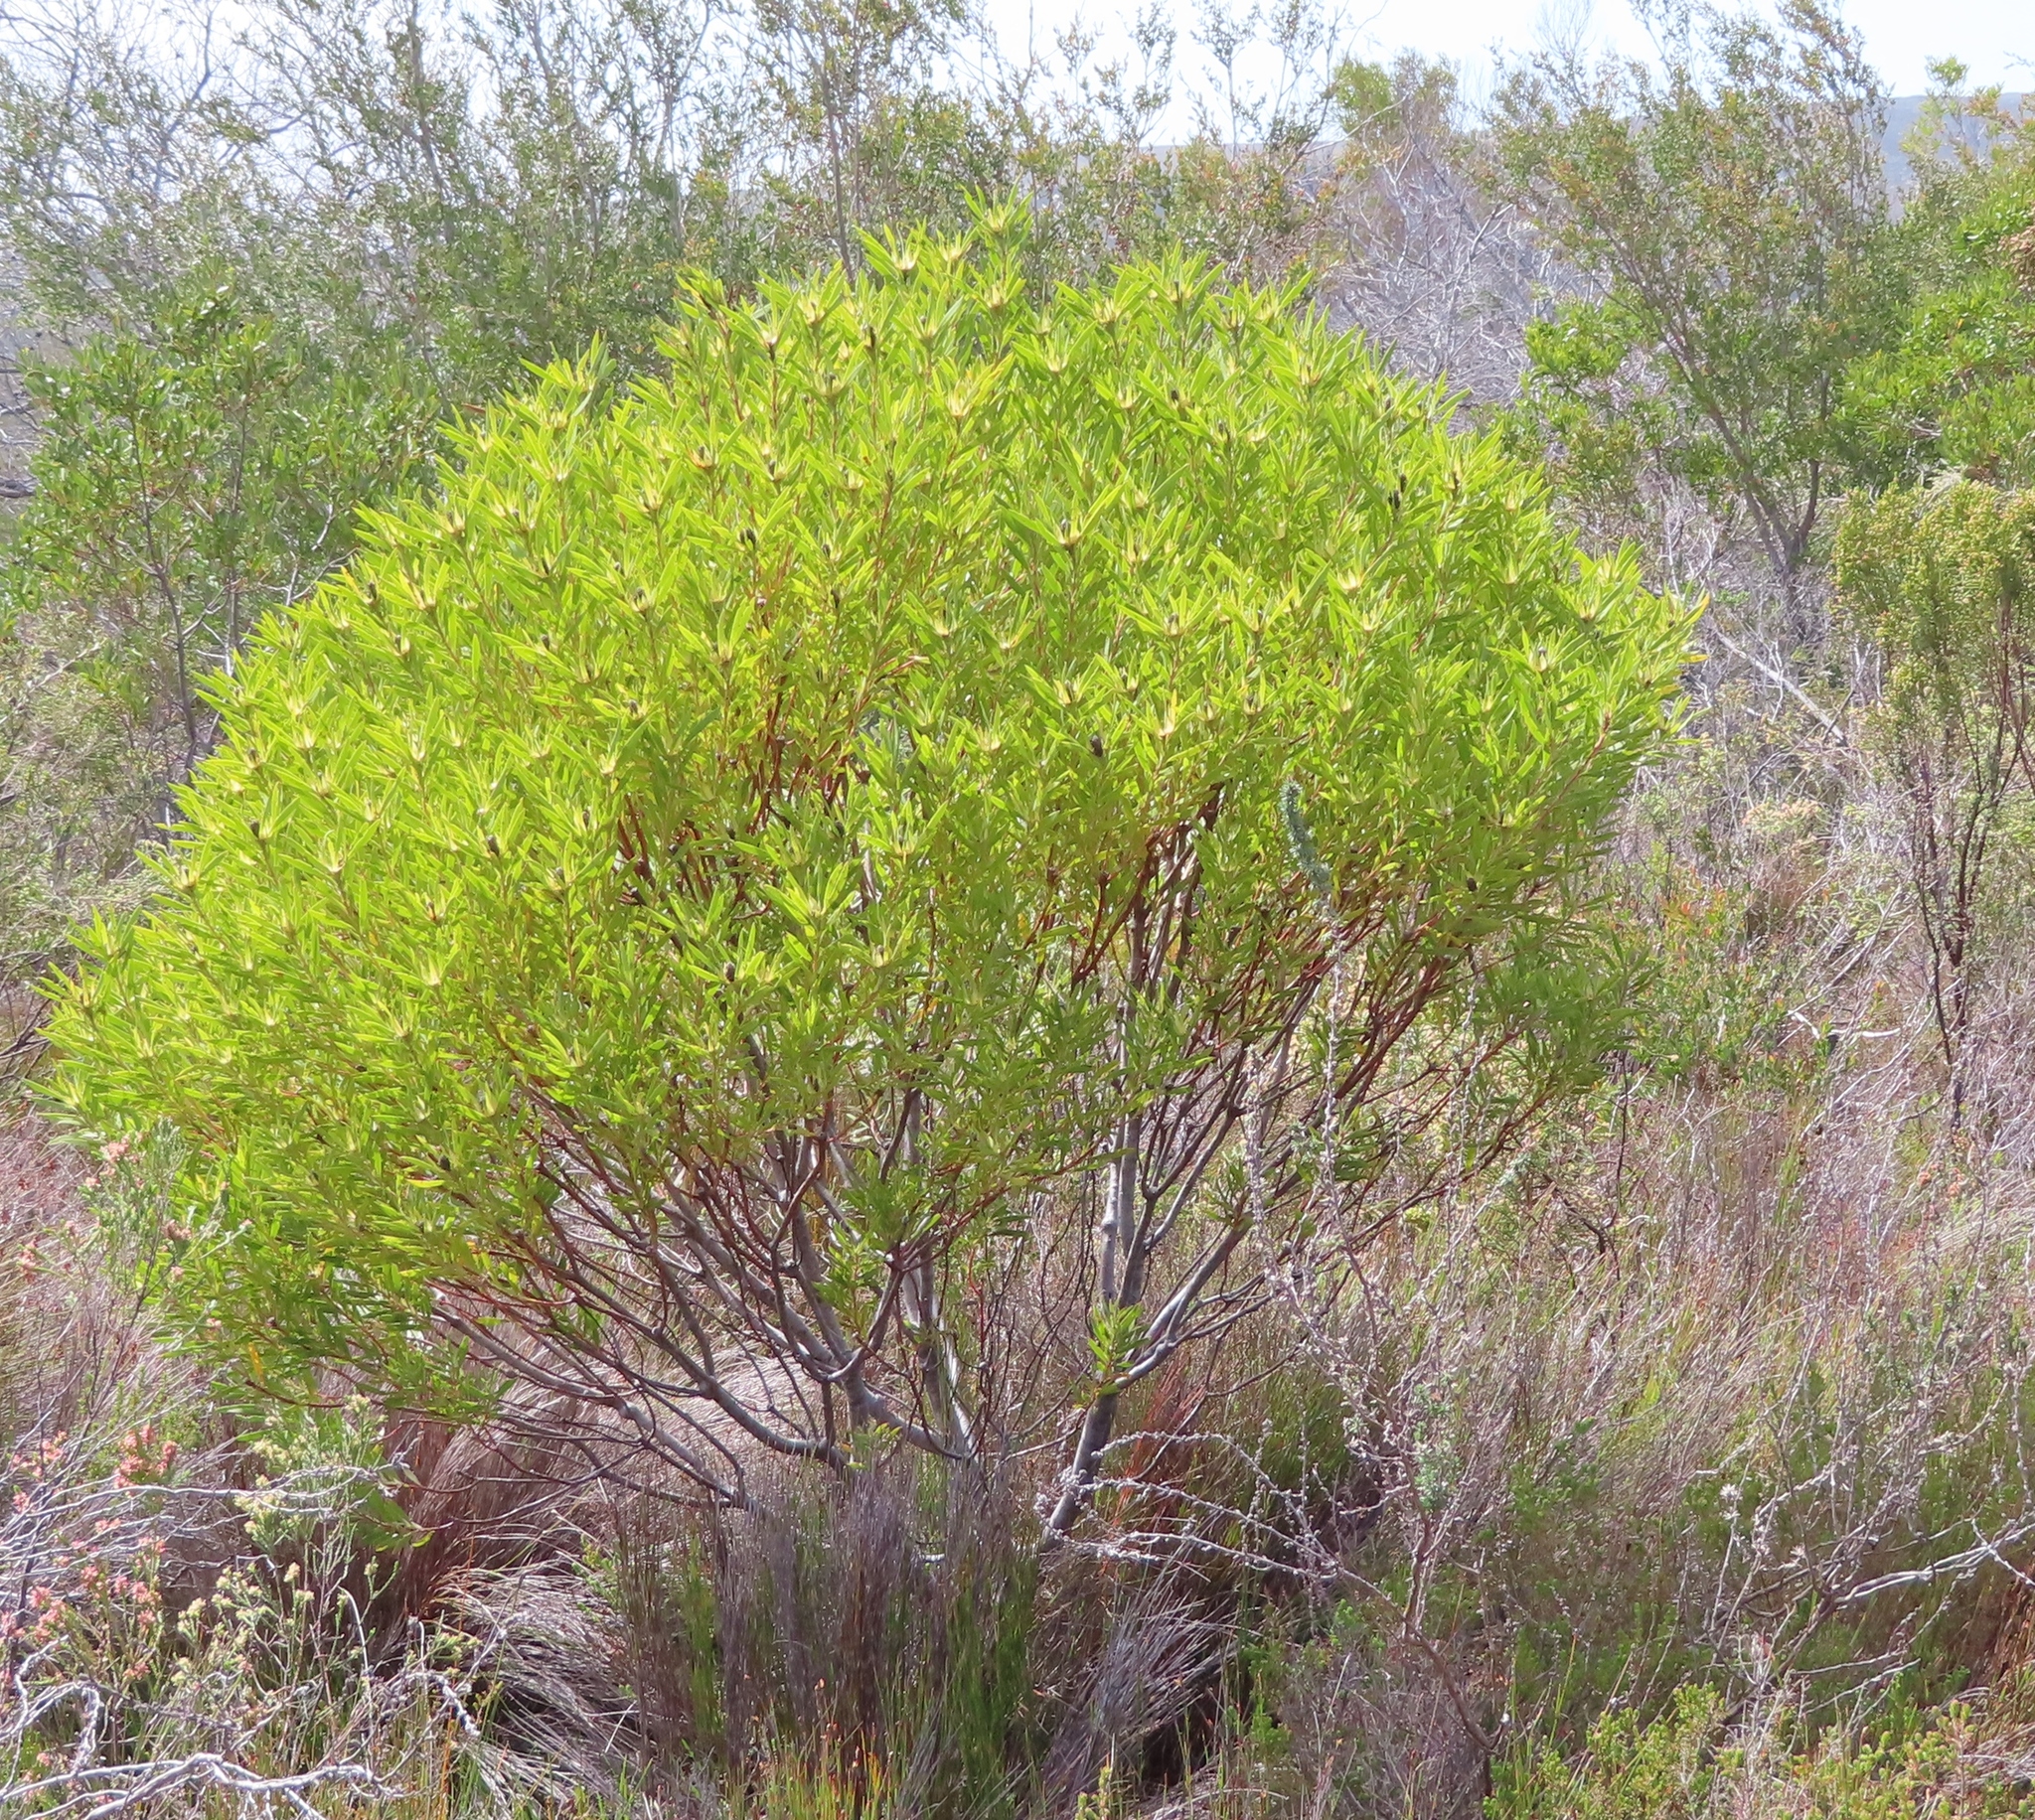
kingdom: Plantae
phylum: Tracheophyta
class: Magnoliopsida
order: Proteales
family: Proteaceae
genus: Leucadendron
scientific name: Leucadendron coniferum
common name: Dune conebush
